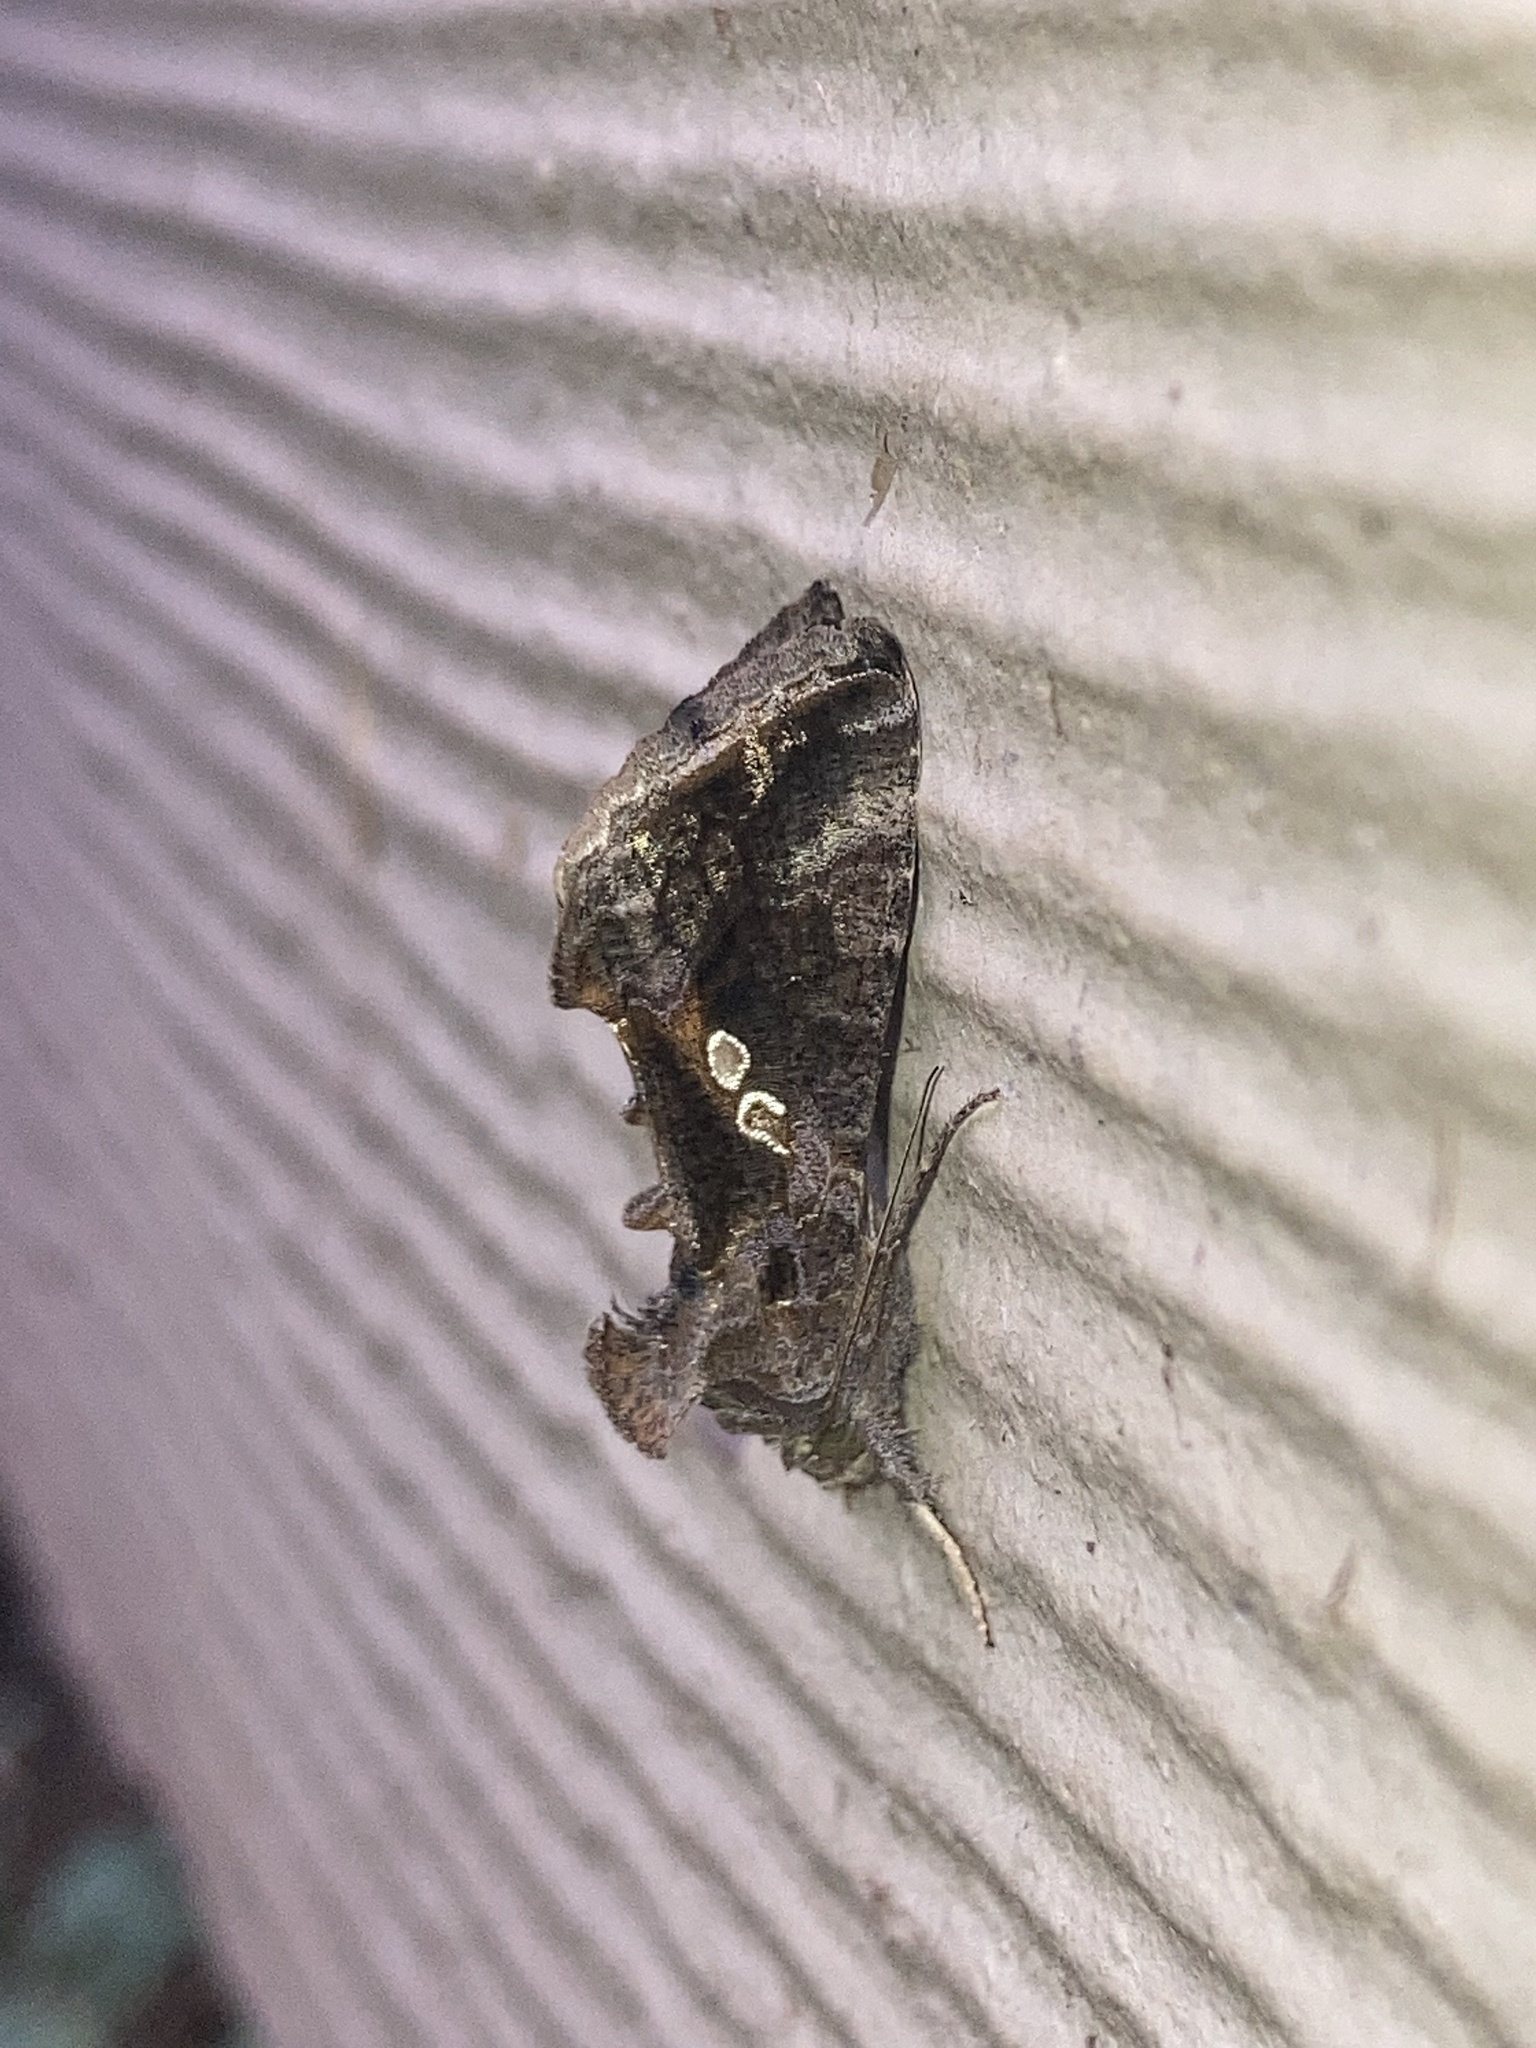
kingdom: Animalia
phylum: Arthropoda
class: Insecta
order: Lepidoptera
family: Noctuidae
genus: Chrysodeixis
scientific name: Chrysodeixis includens
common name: Cutworm moth
